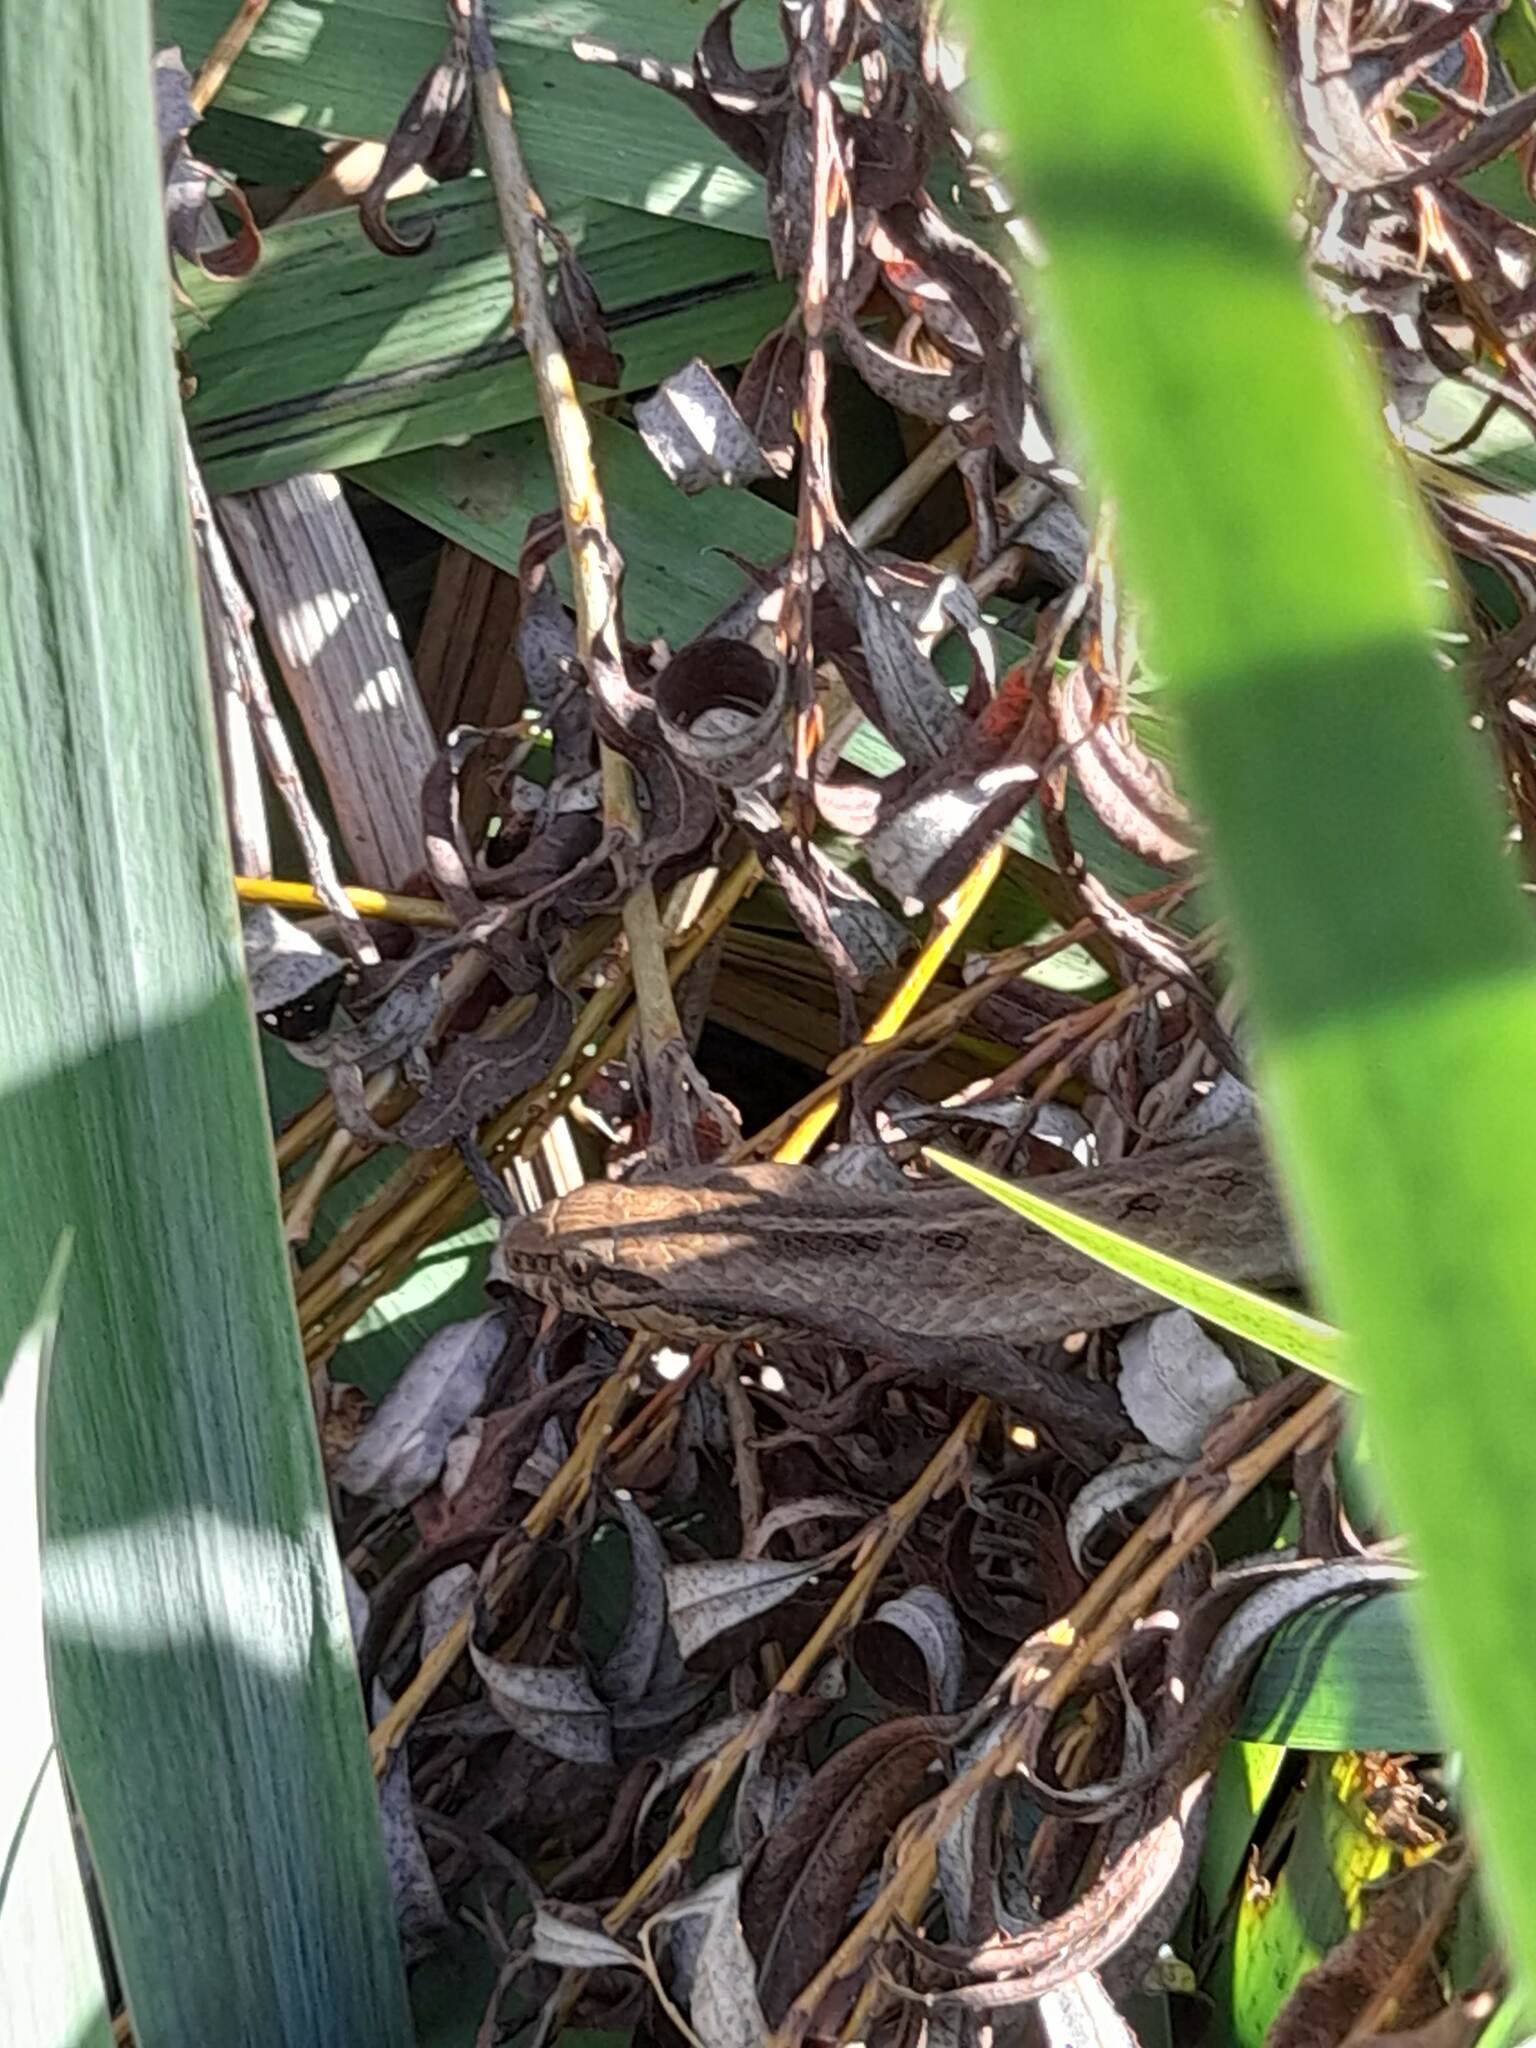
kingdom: Animalia
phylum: Chordata
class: Squamata
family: Colubridae
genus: Dryophylax
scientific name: Dryophylax
